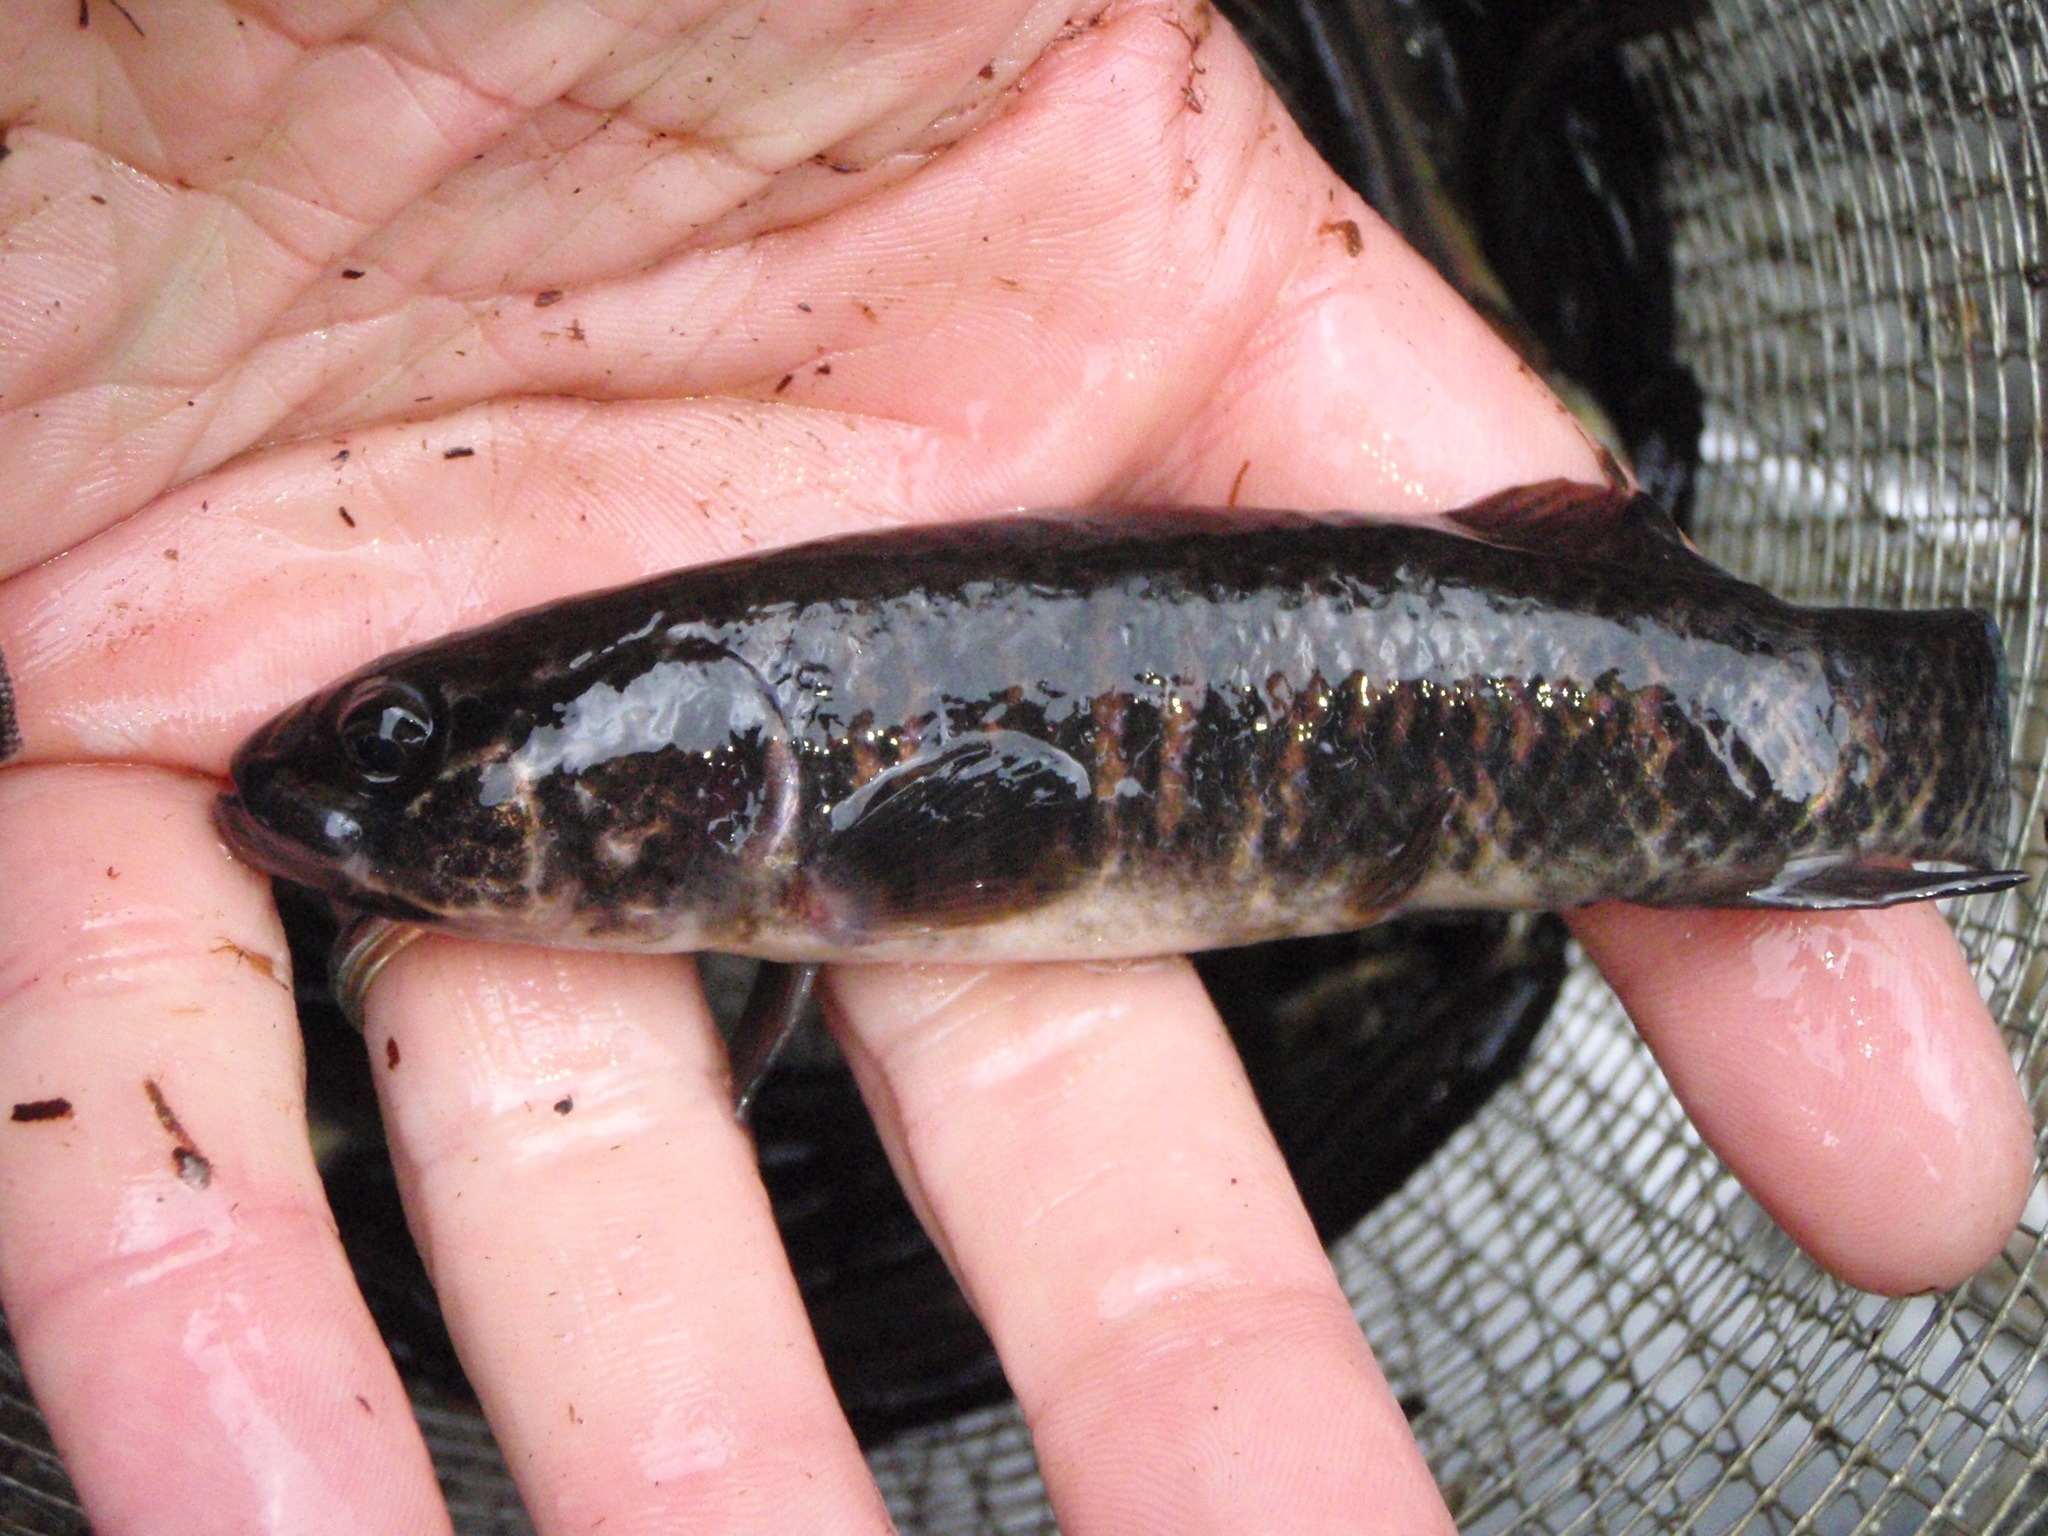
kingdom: Animalia
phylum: Chordata
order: Esociformes
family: Umbridae
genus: Umbra
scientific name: Umbra limi
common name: Central mudminnow
